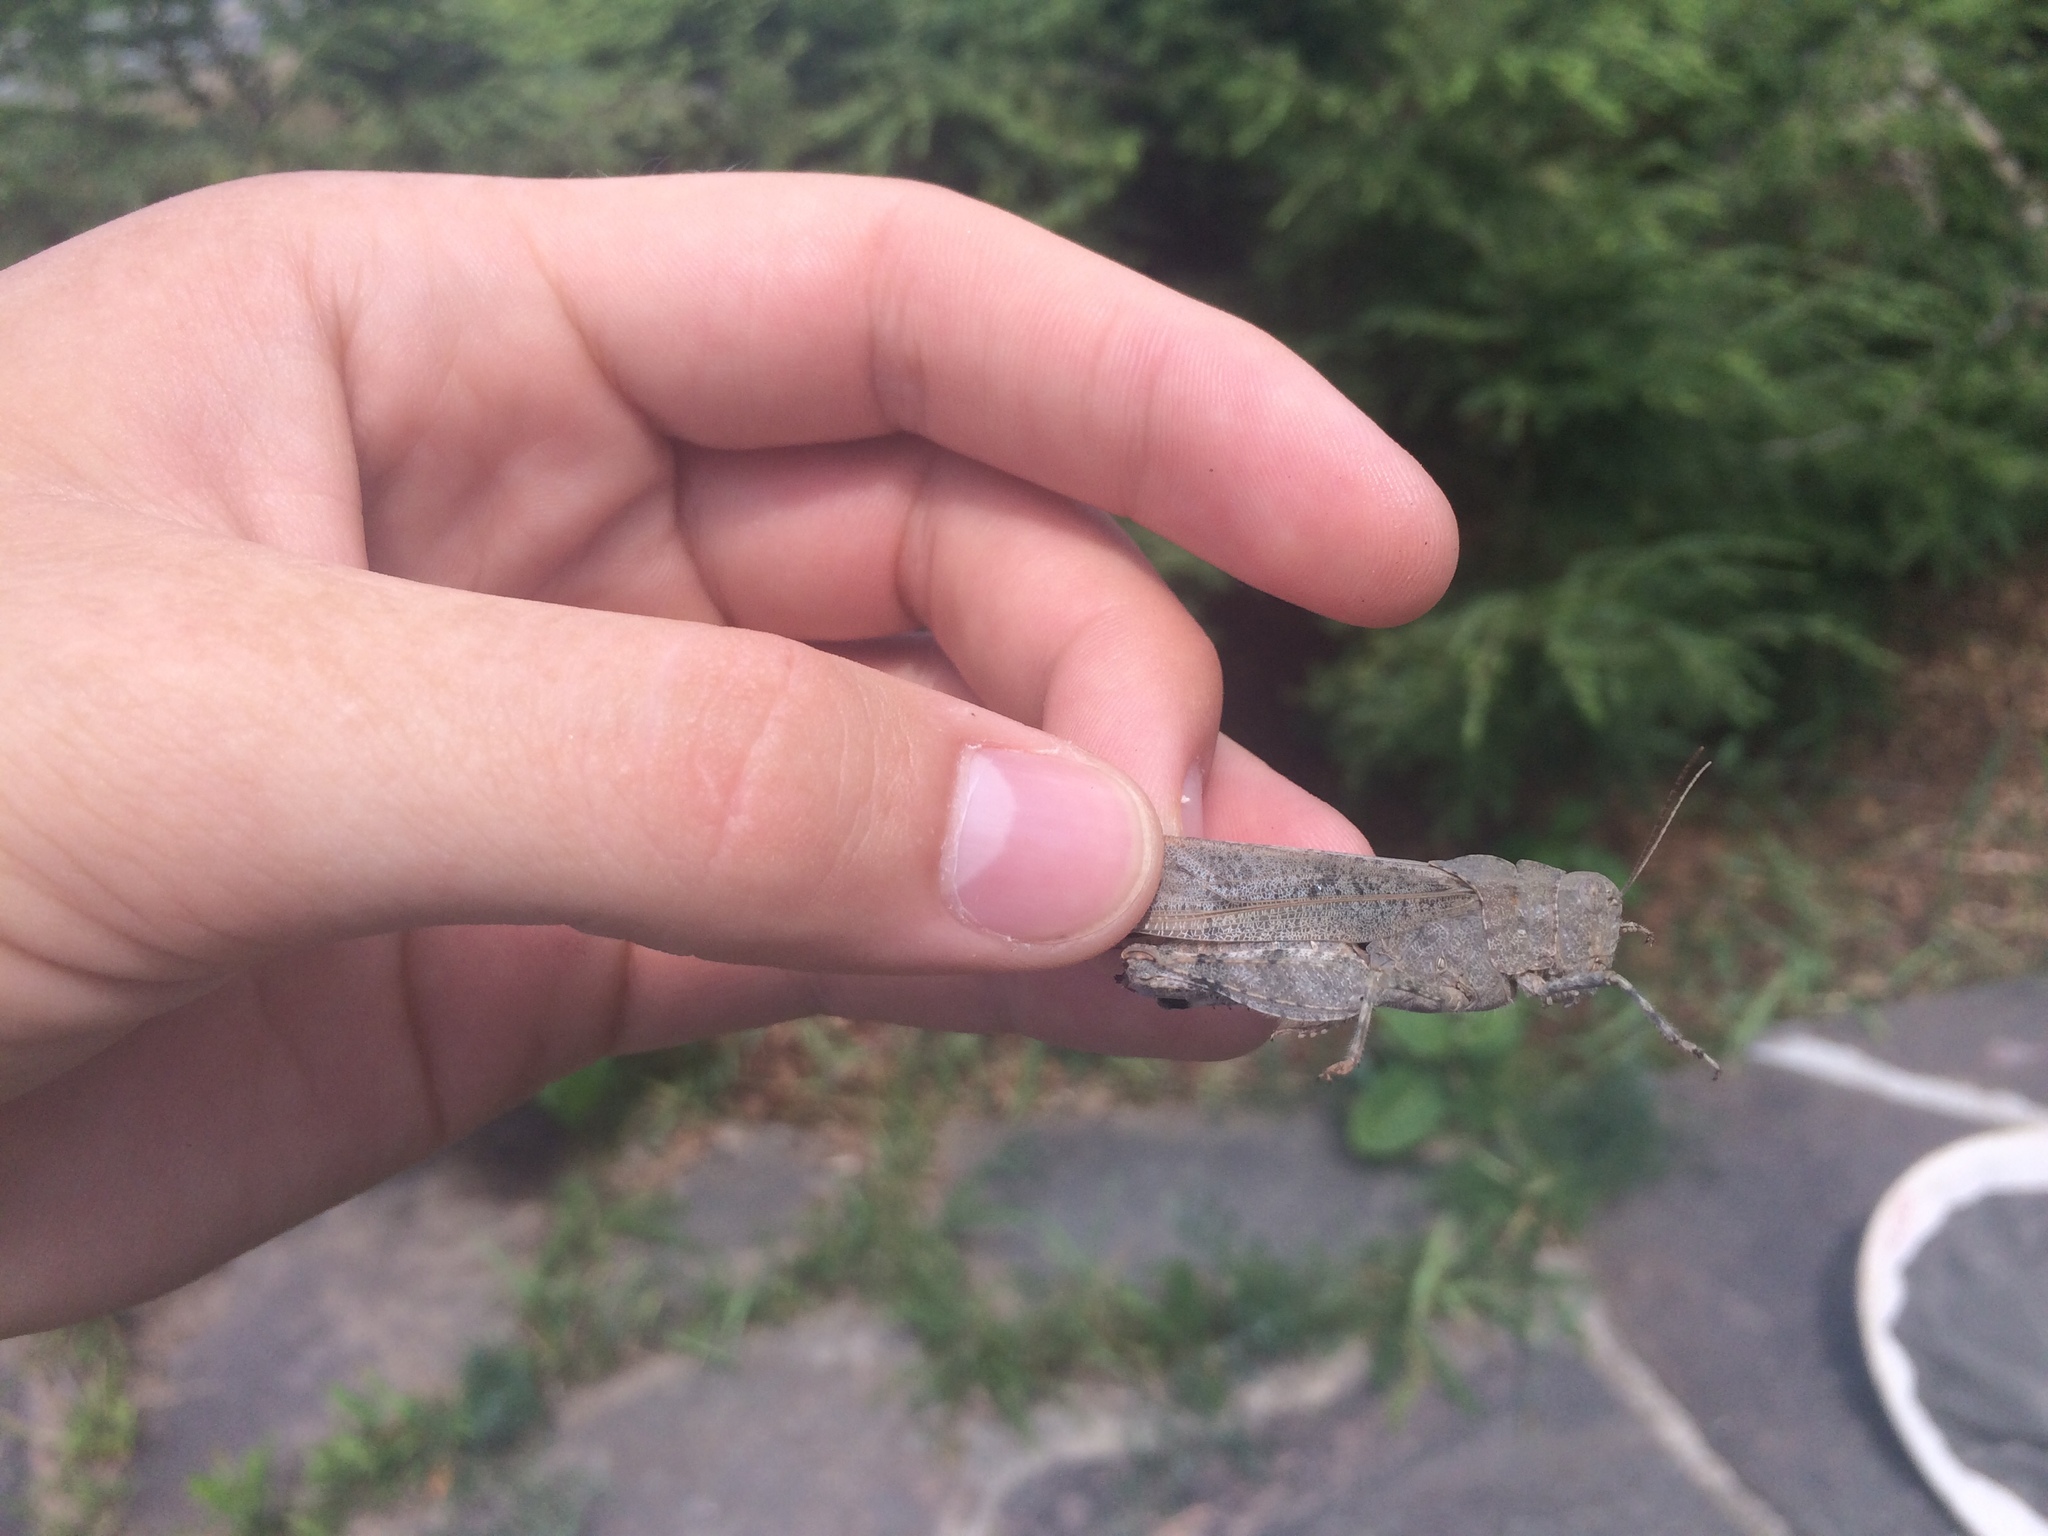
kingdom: Animalia
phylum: Arthropoda
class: Insecta
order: Orthoptera
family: Acrididae
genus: Dissosteira
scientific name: Dissosteira carolina
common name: Carolina grasshopper
